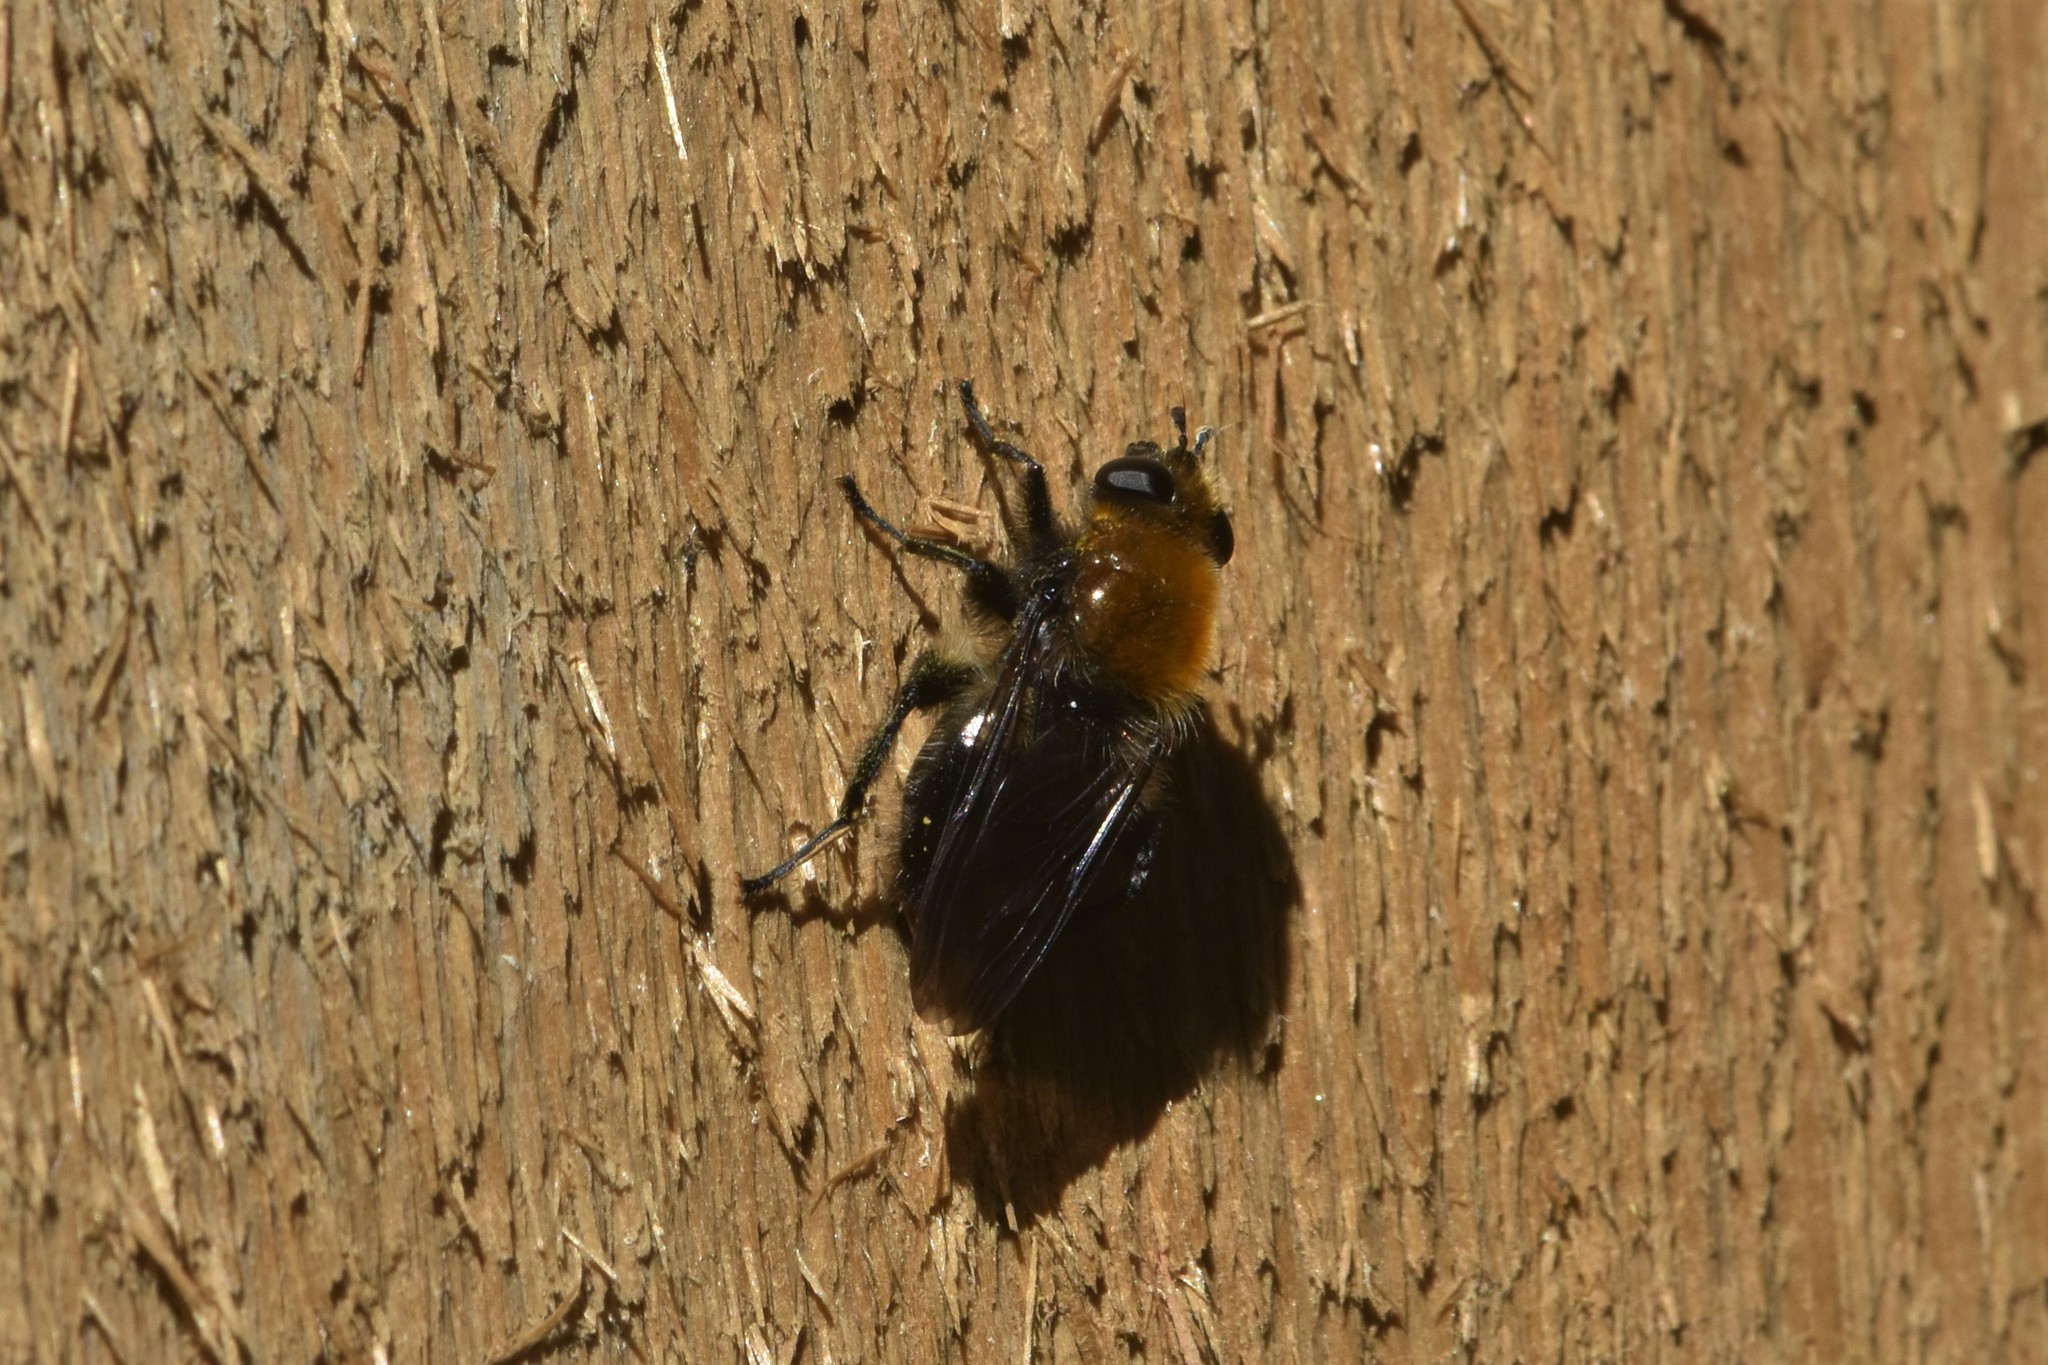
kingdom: Animalia
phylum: Arthropoda
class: Insecta
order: Diptera
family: Syrphidae
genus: Brachypalpus
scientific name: Brachypalpus alopex
